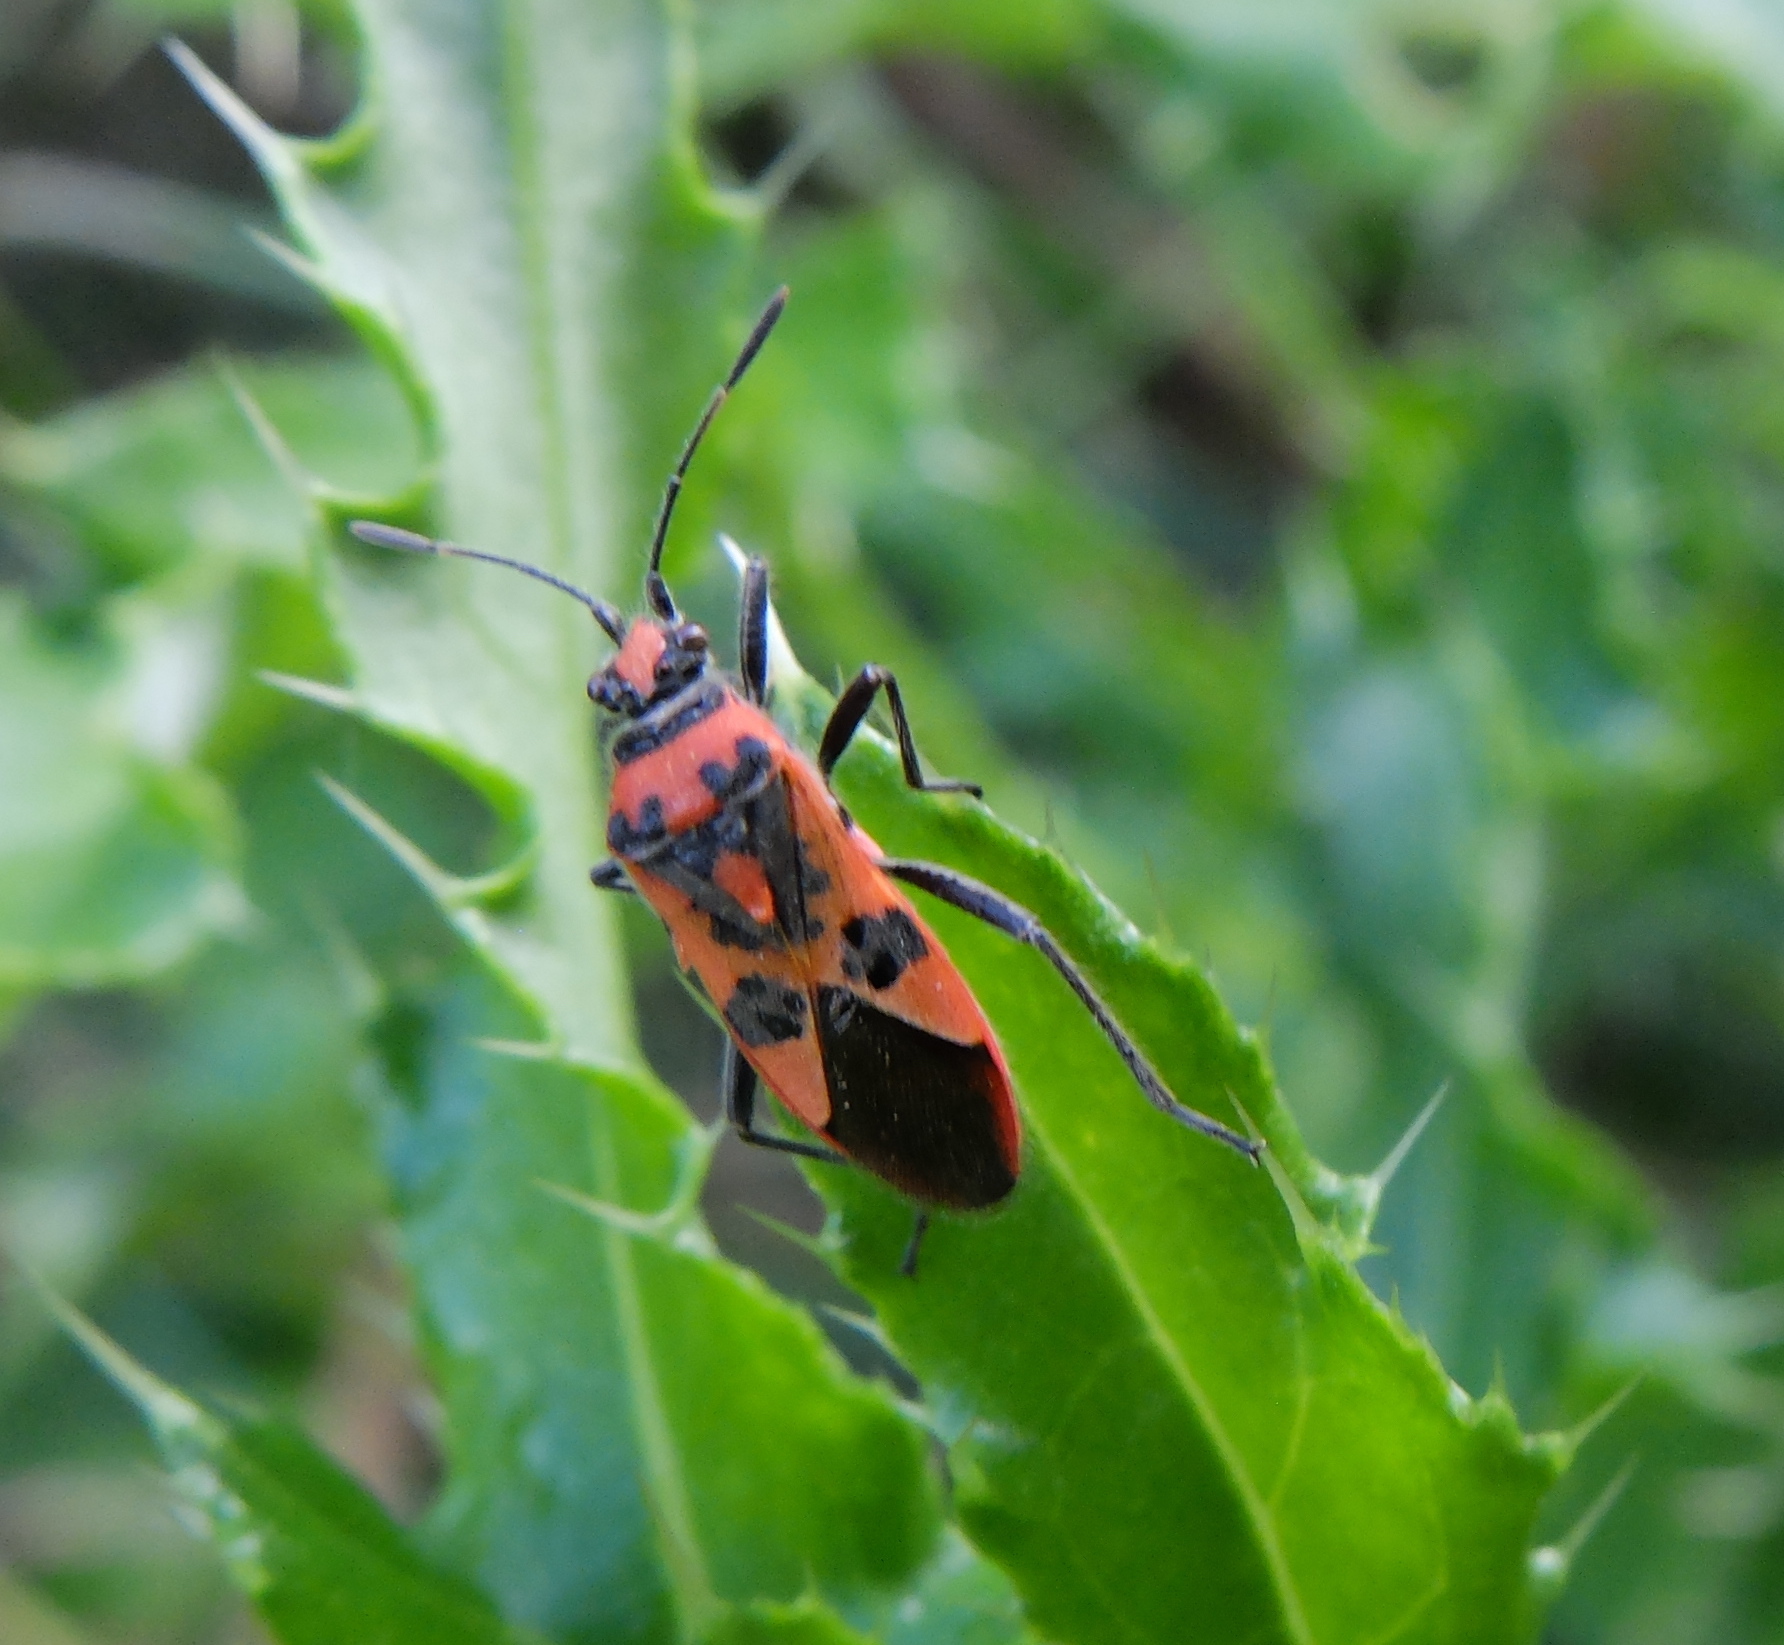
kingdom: Animalia
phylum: Arthropoda
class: Insecta
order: Hemiptera
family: Rhopalidae
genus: Corizus
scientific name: Corizus hyoscyami
